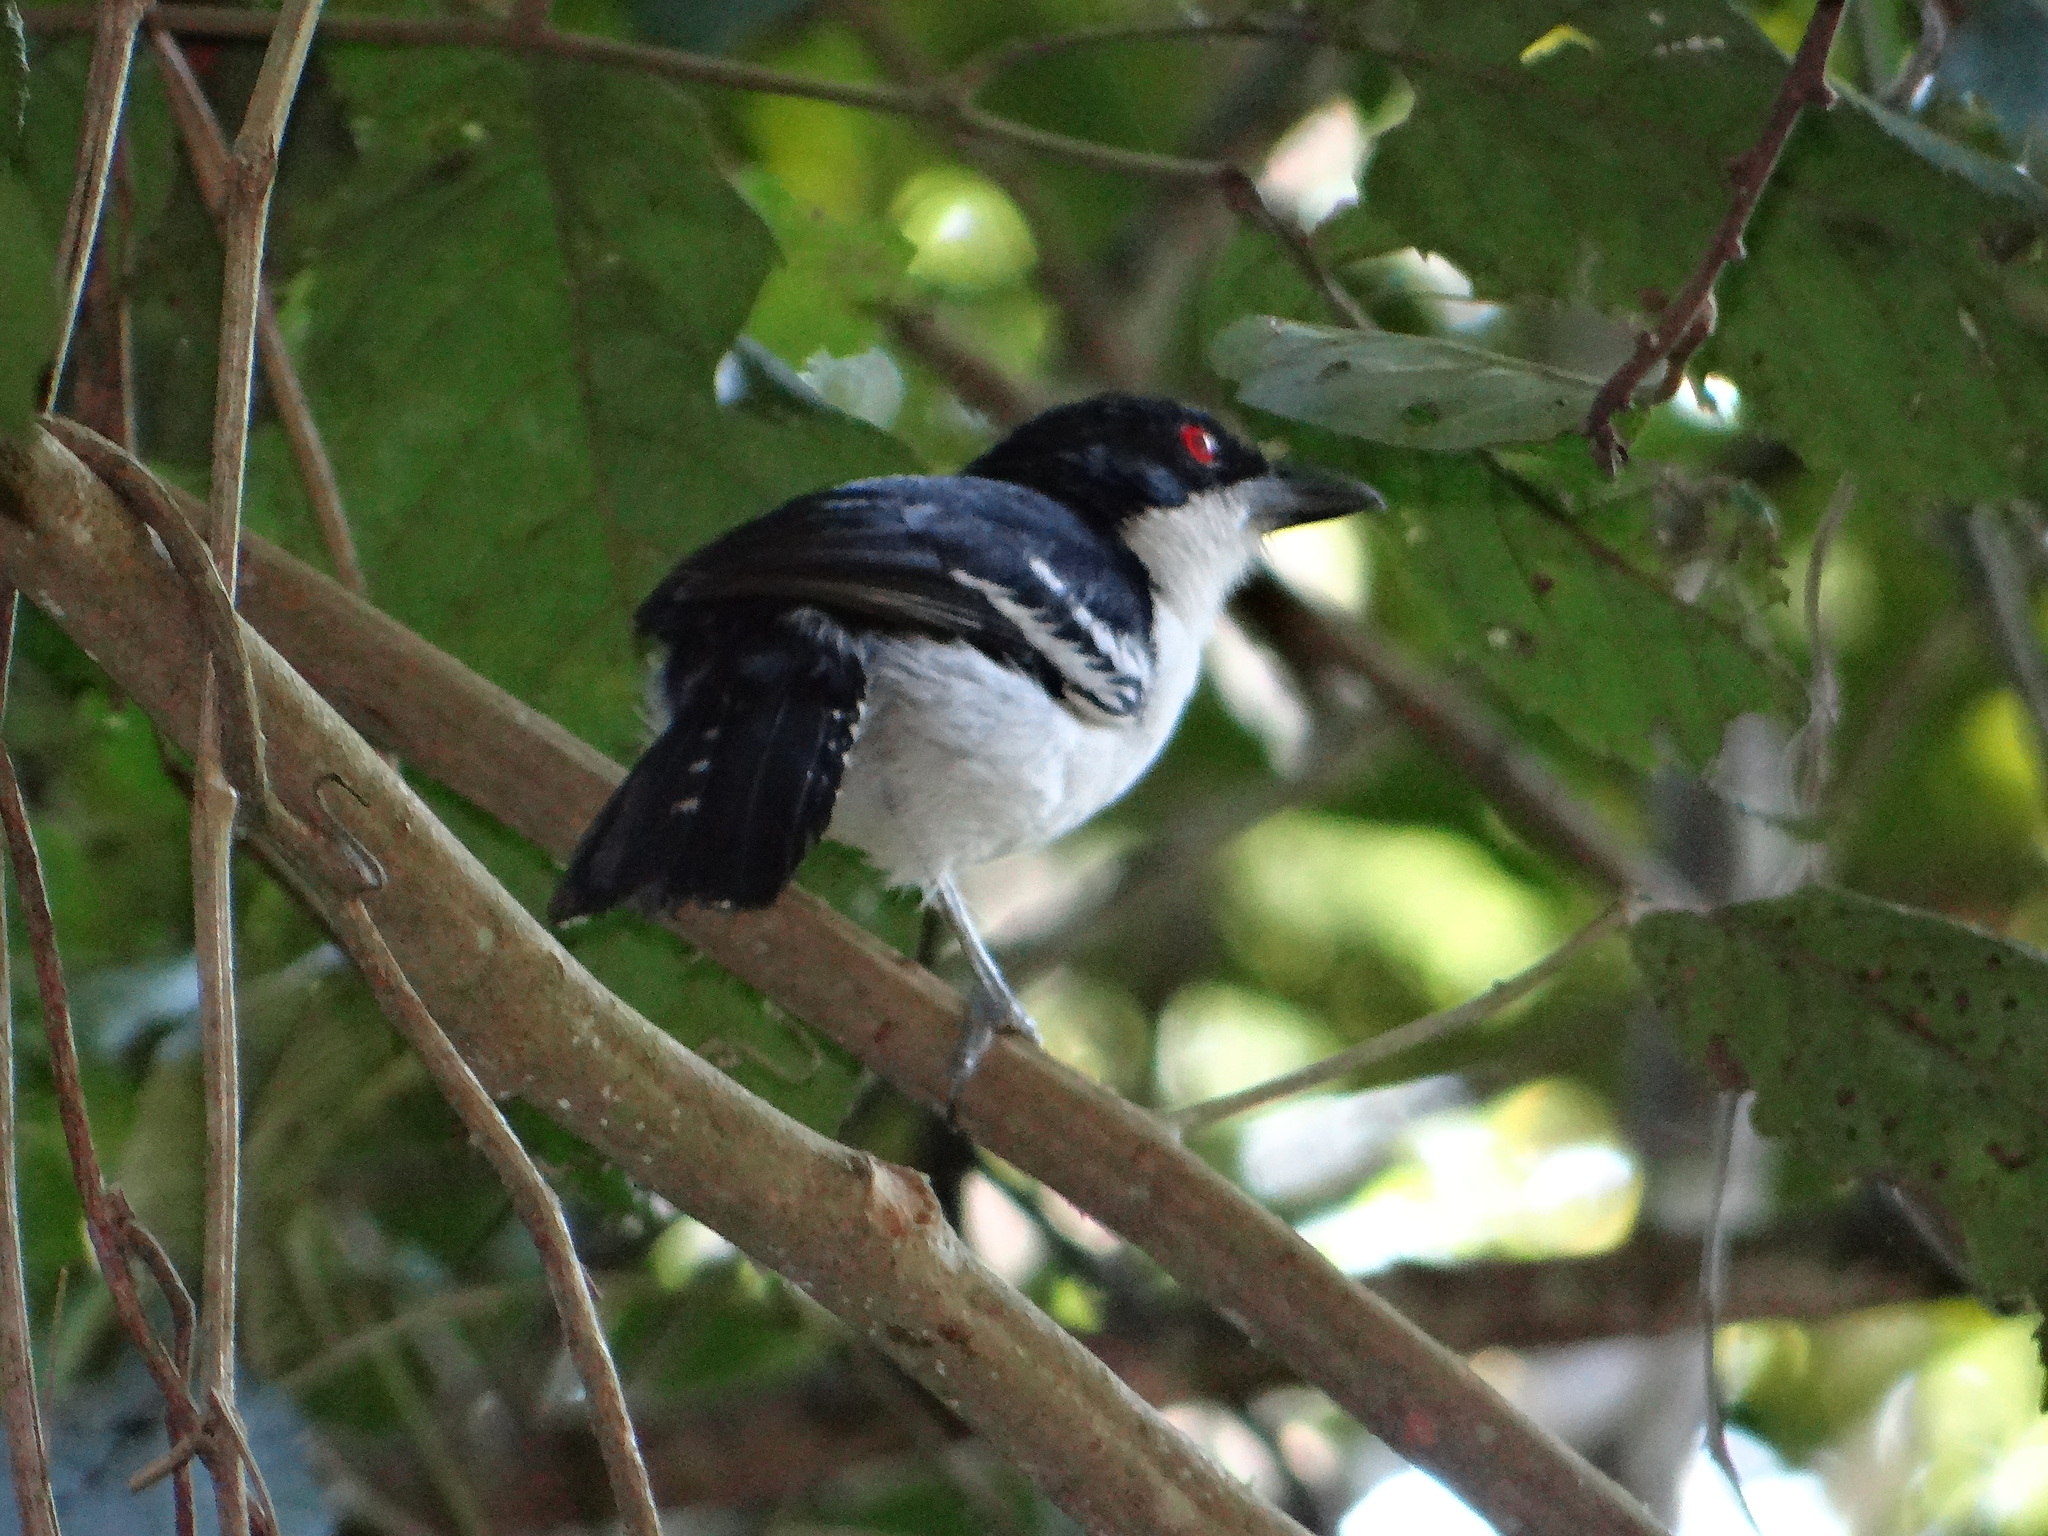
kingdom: Animalia
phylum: Chordata
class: Aves
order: Passeriformes
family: Thamnophilidae
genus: Taraba
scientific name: Taraba major
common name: Great antshrike
